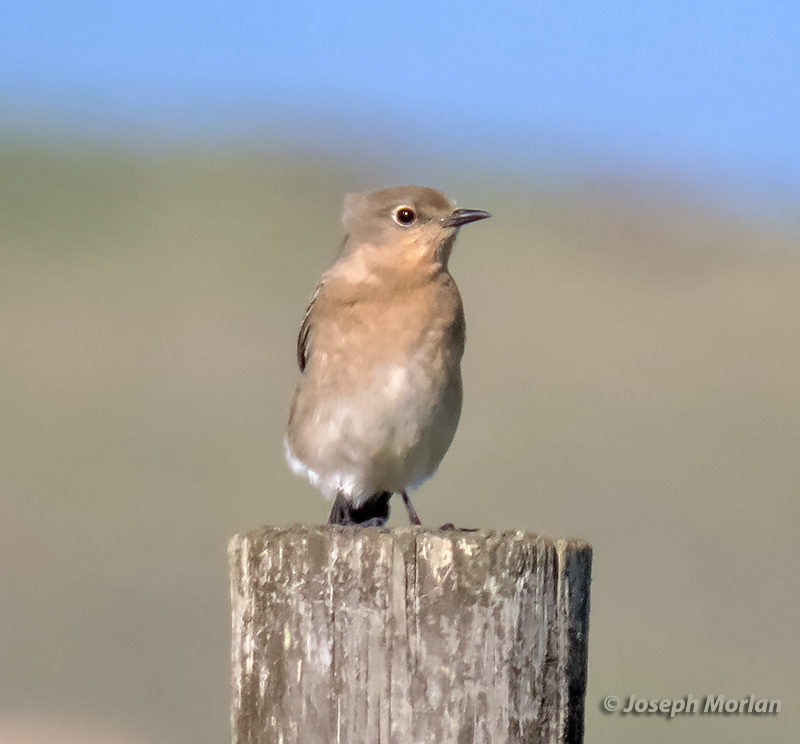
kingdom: Animalia
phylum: Chordata
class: Aves
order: Passeriformes
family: Turdidae
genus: Sialia
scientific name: Sialia currucoides
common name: Mountain bluebird
